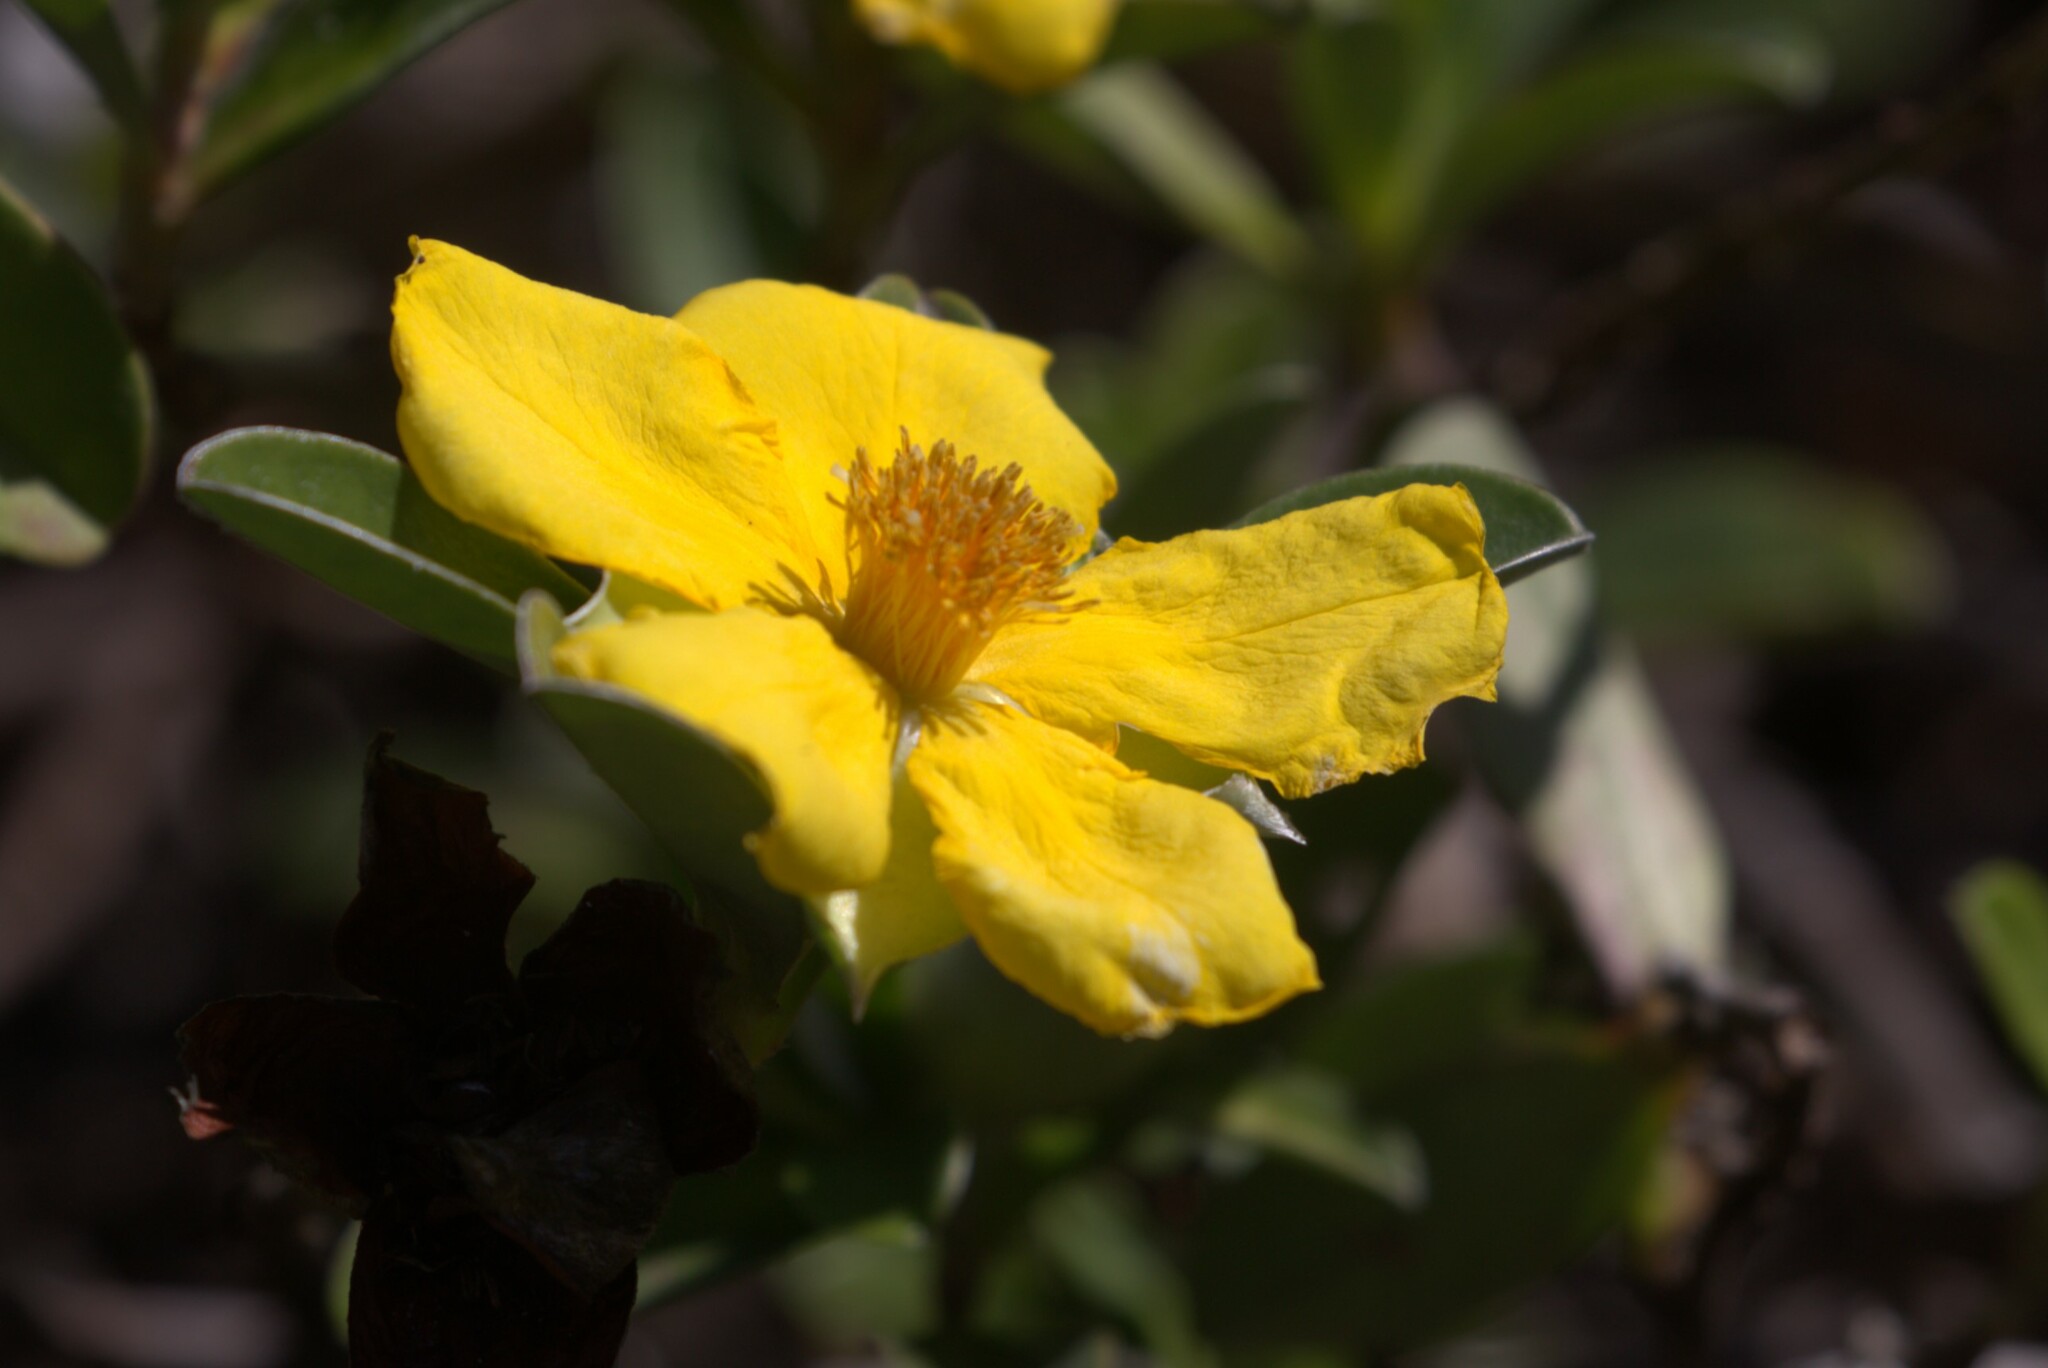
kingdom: Plantae
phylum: Tracheophyta
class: Magnoliopsida
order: Dilleniales
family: Dilleniaceae
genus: Hibbertia
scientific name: Hibbertia scandens
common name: Climbing guinea-flower
